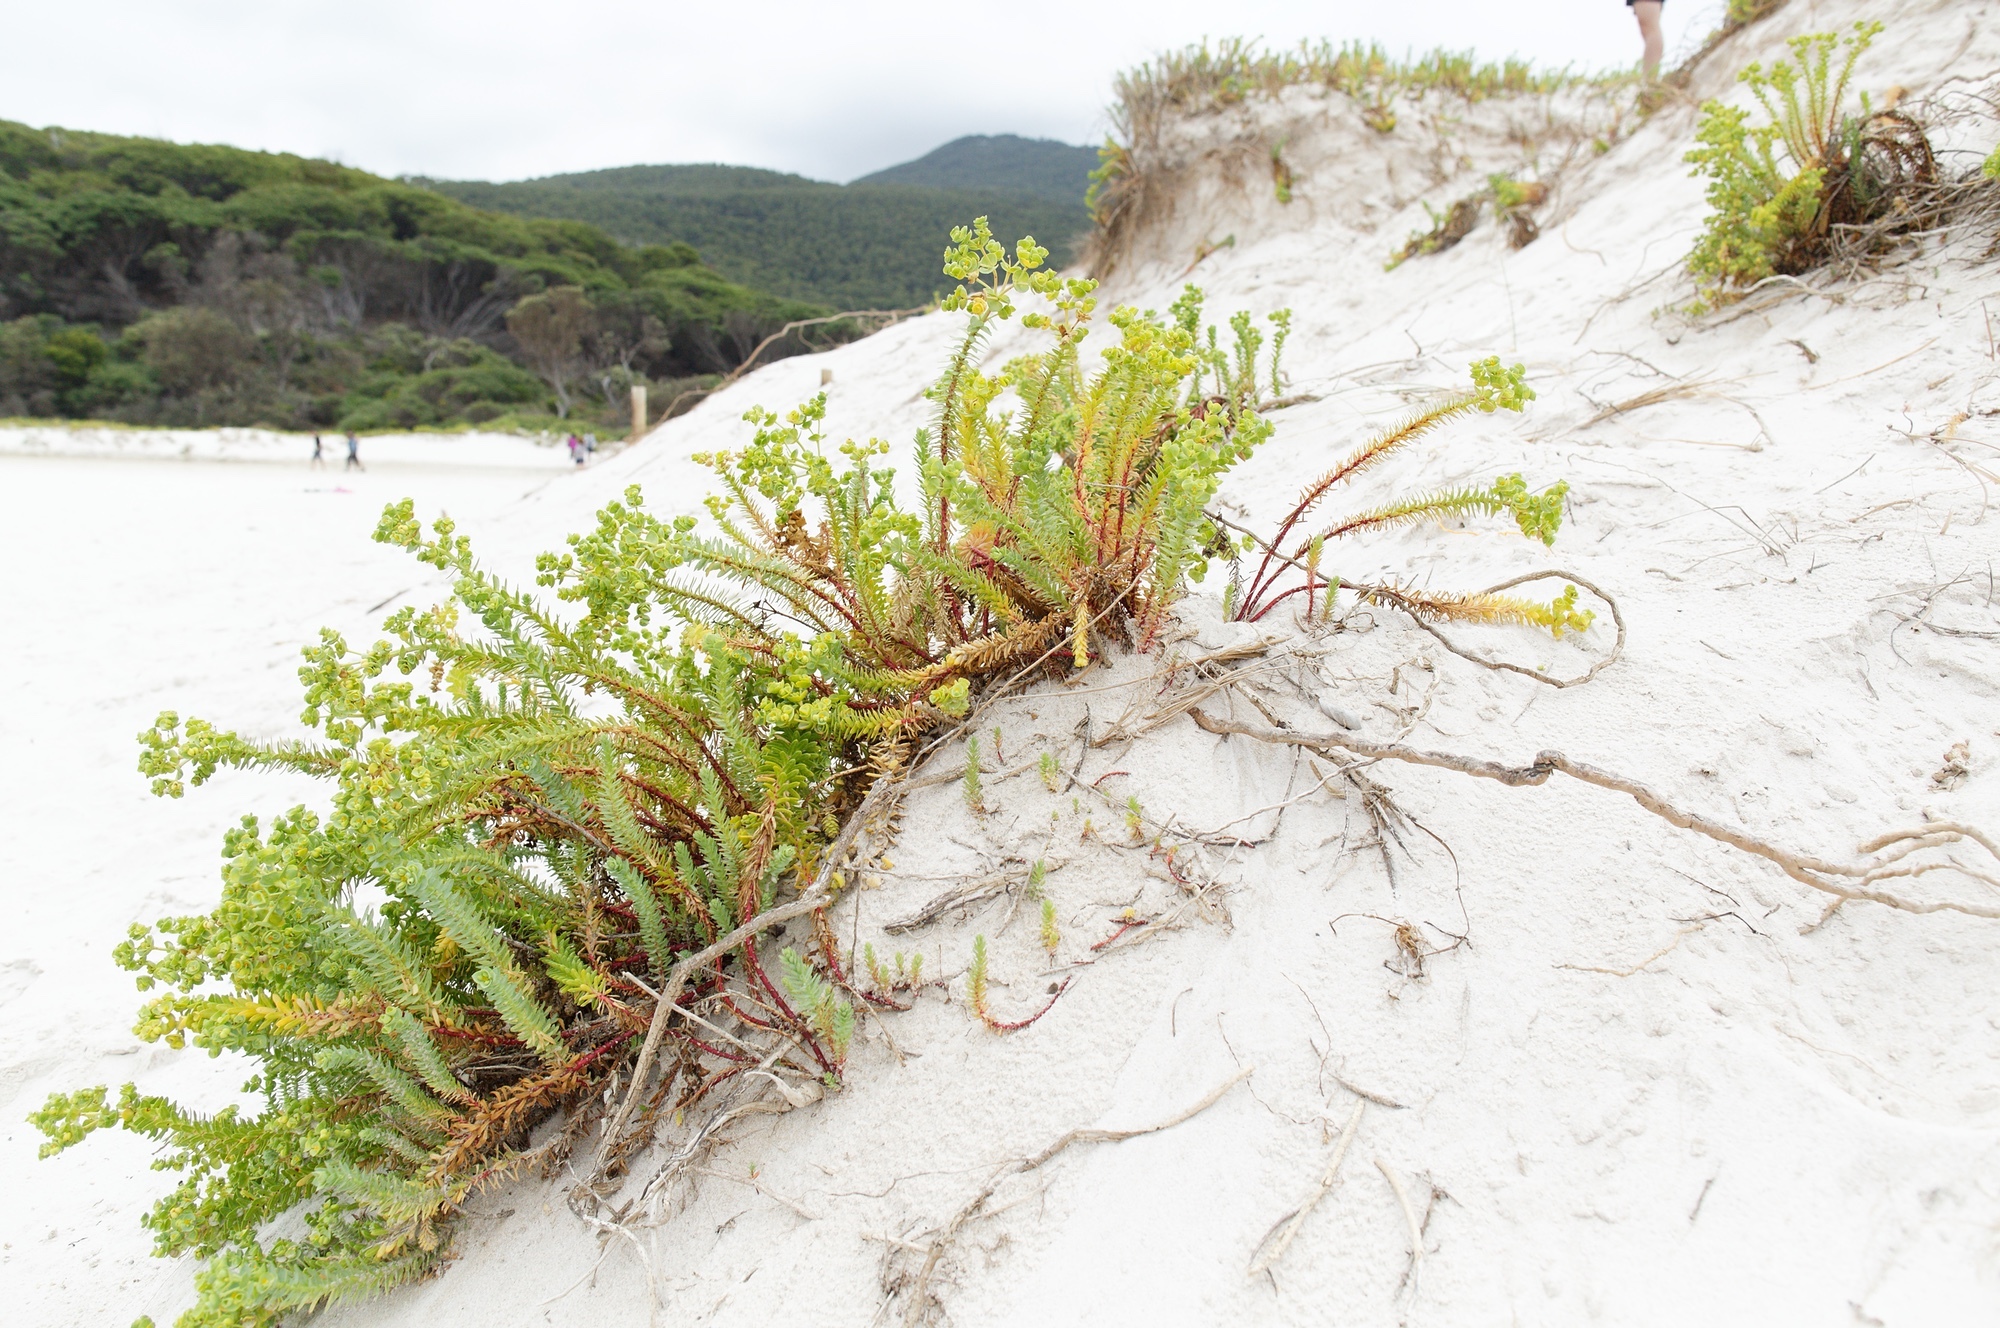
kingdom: Plantae
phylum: Tracheophyta
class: Magnoliopsida
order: Malpighiales
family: Euphorbiaceae
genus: Euphorbia
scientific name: Euphorbia paralias
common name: Sea spurge
